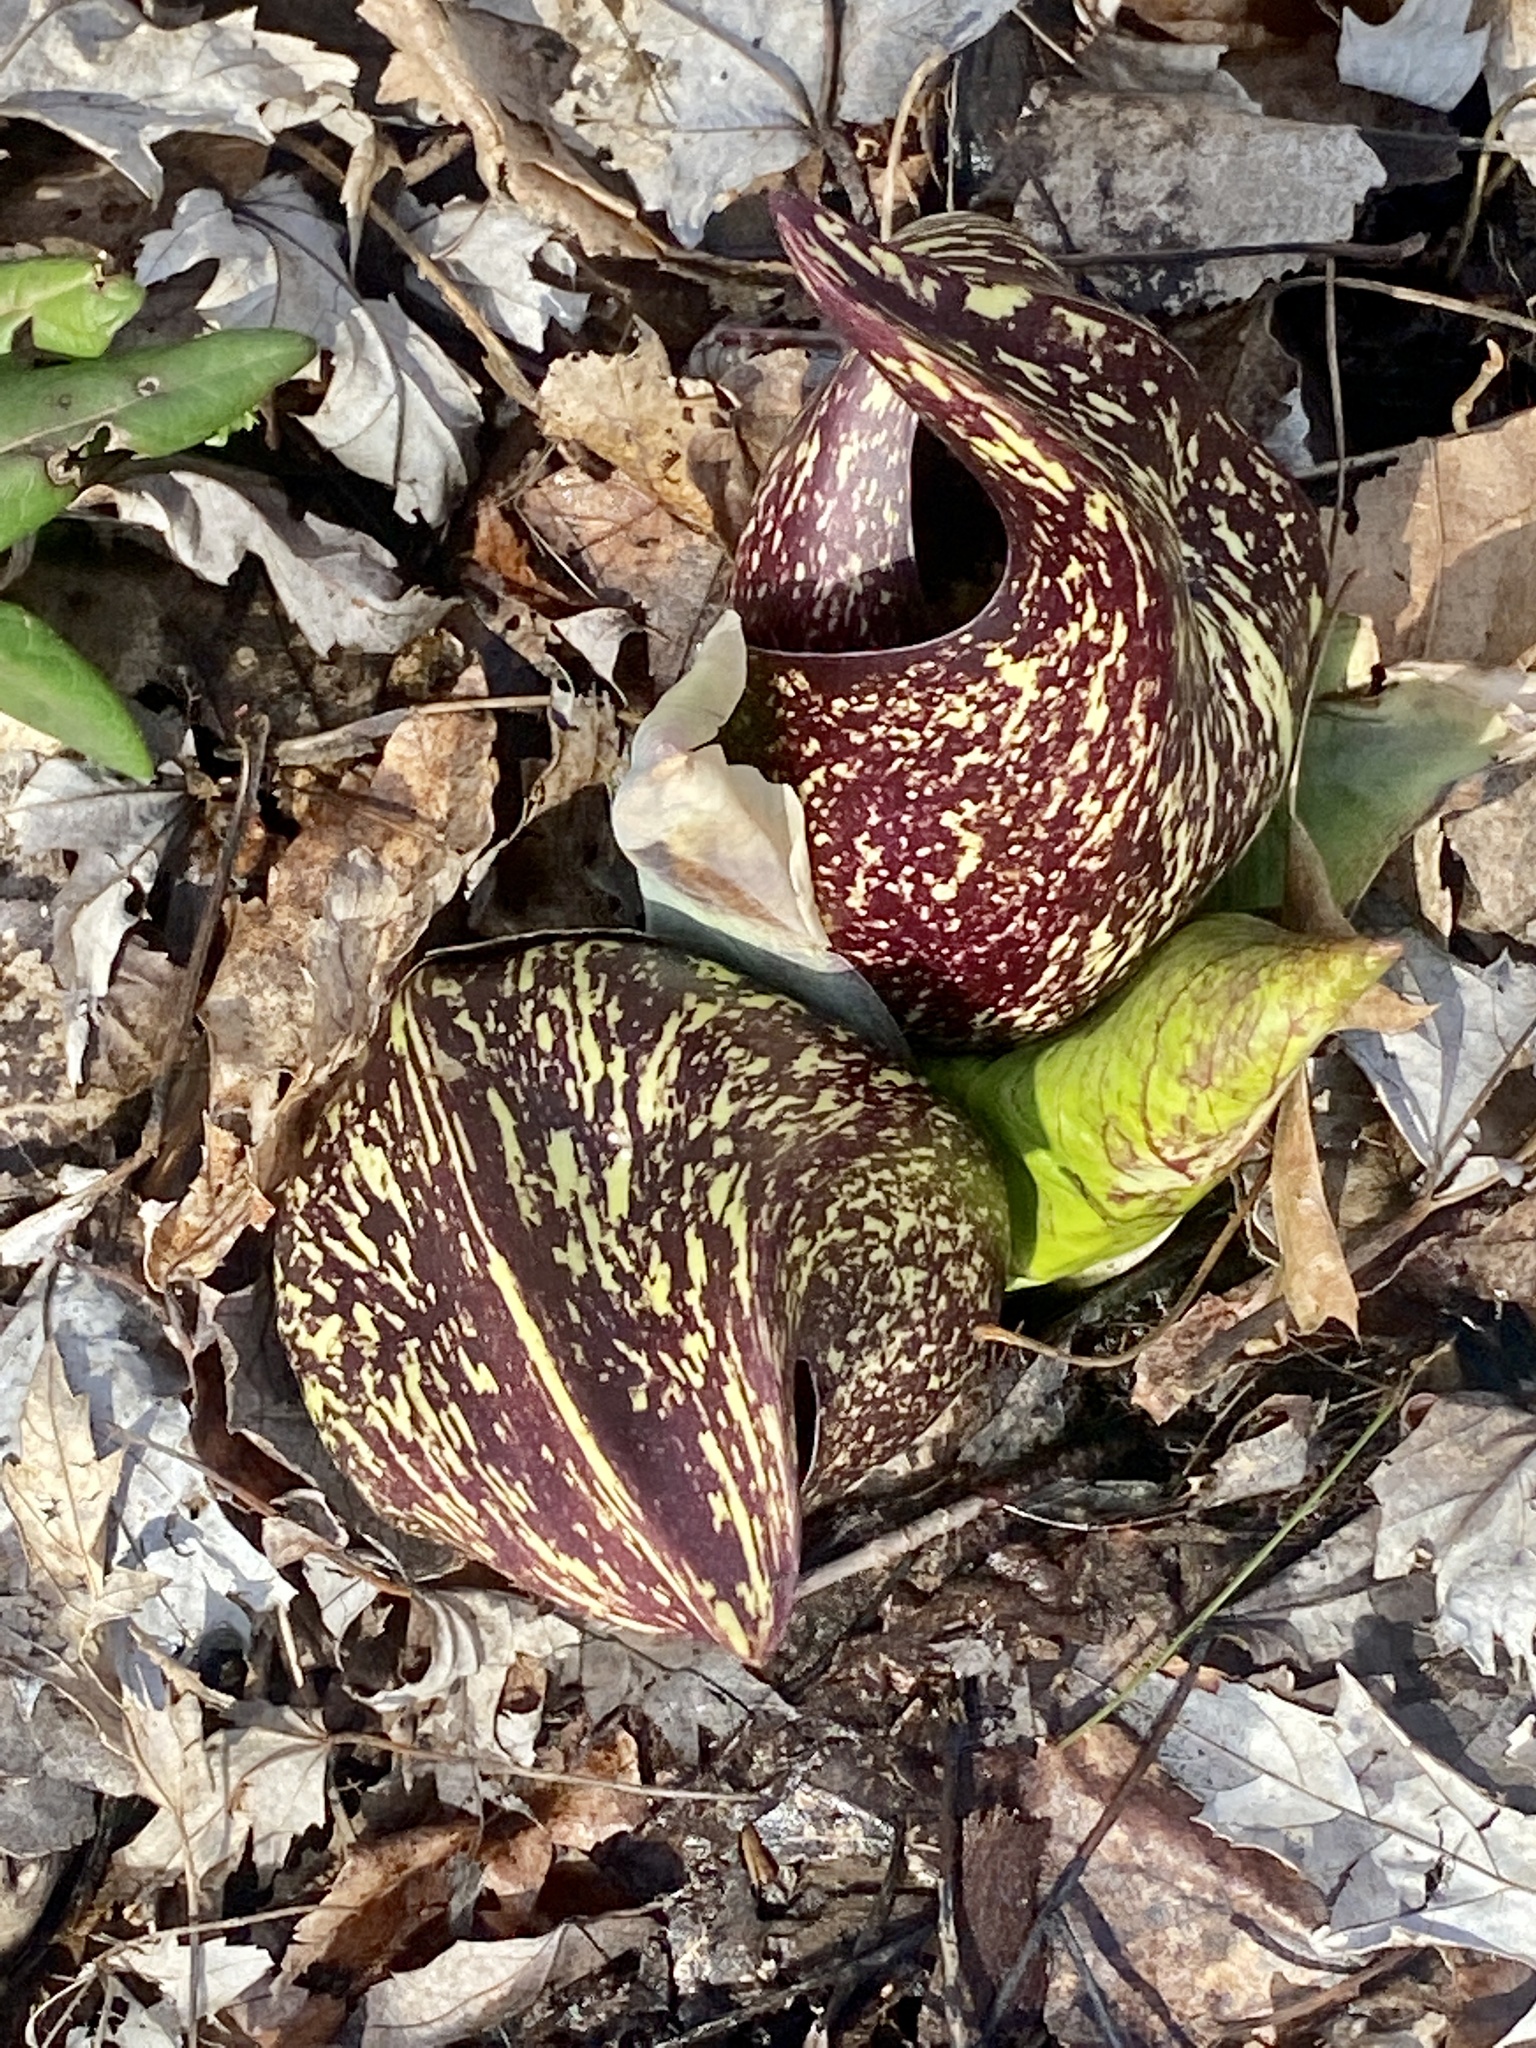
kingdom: Plantae
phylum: Tracheophyta
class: Liliopsida
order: Alismatales
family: Araceae
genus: Symplocarpus
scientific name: Symplocarpus foetidus
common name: Eastern skunk cabbage
